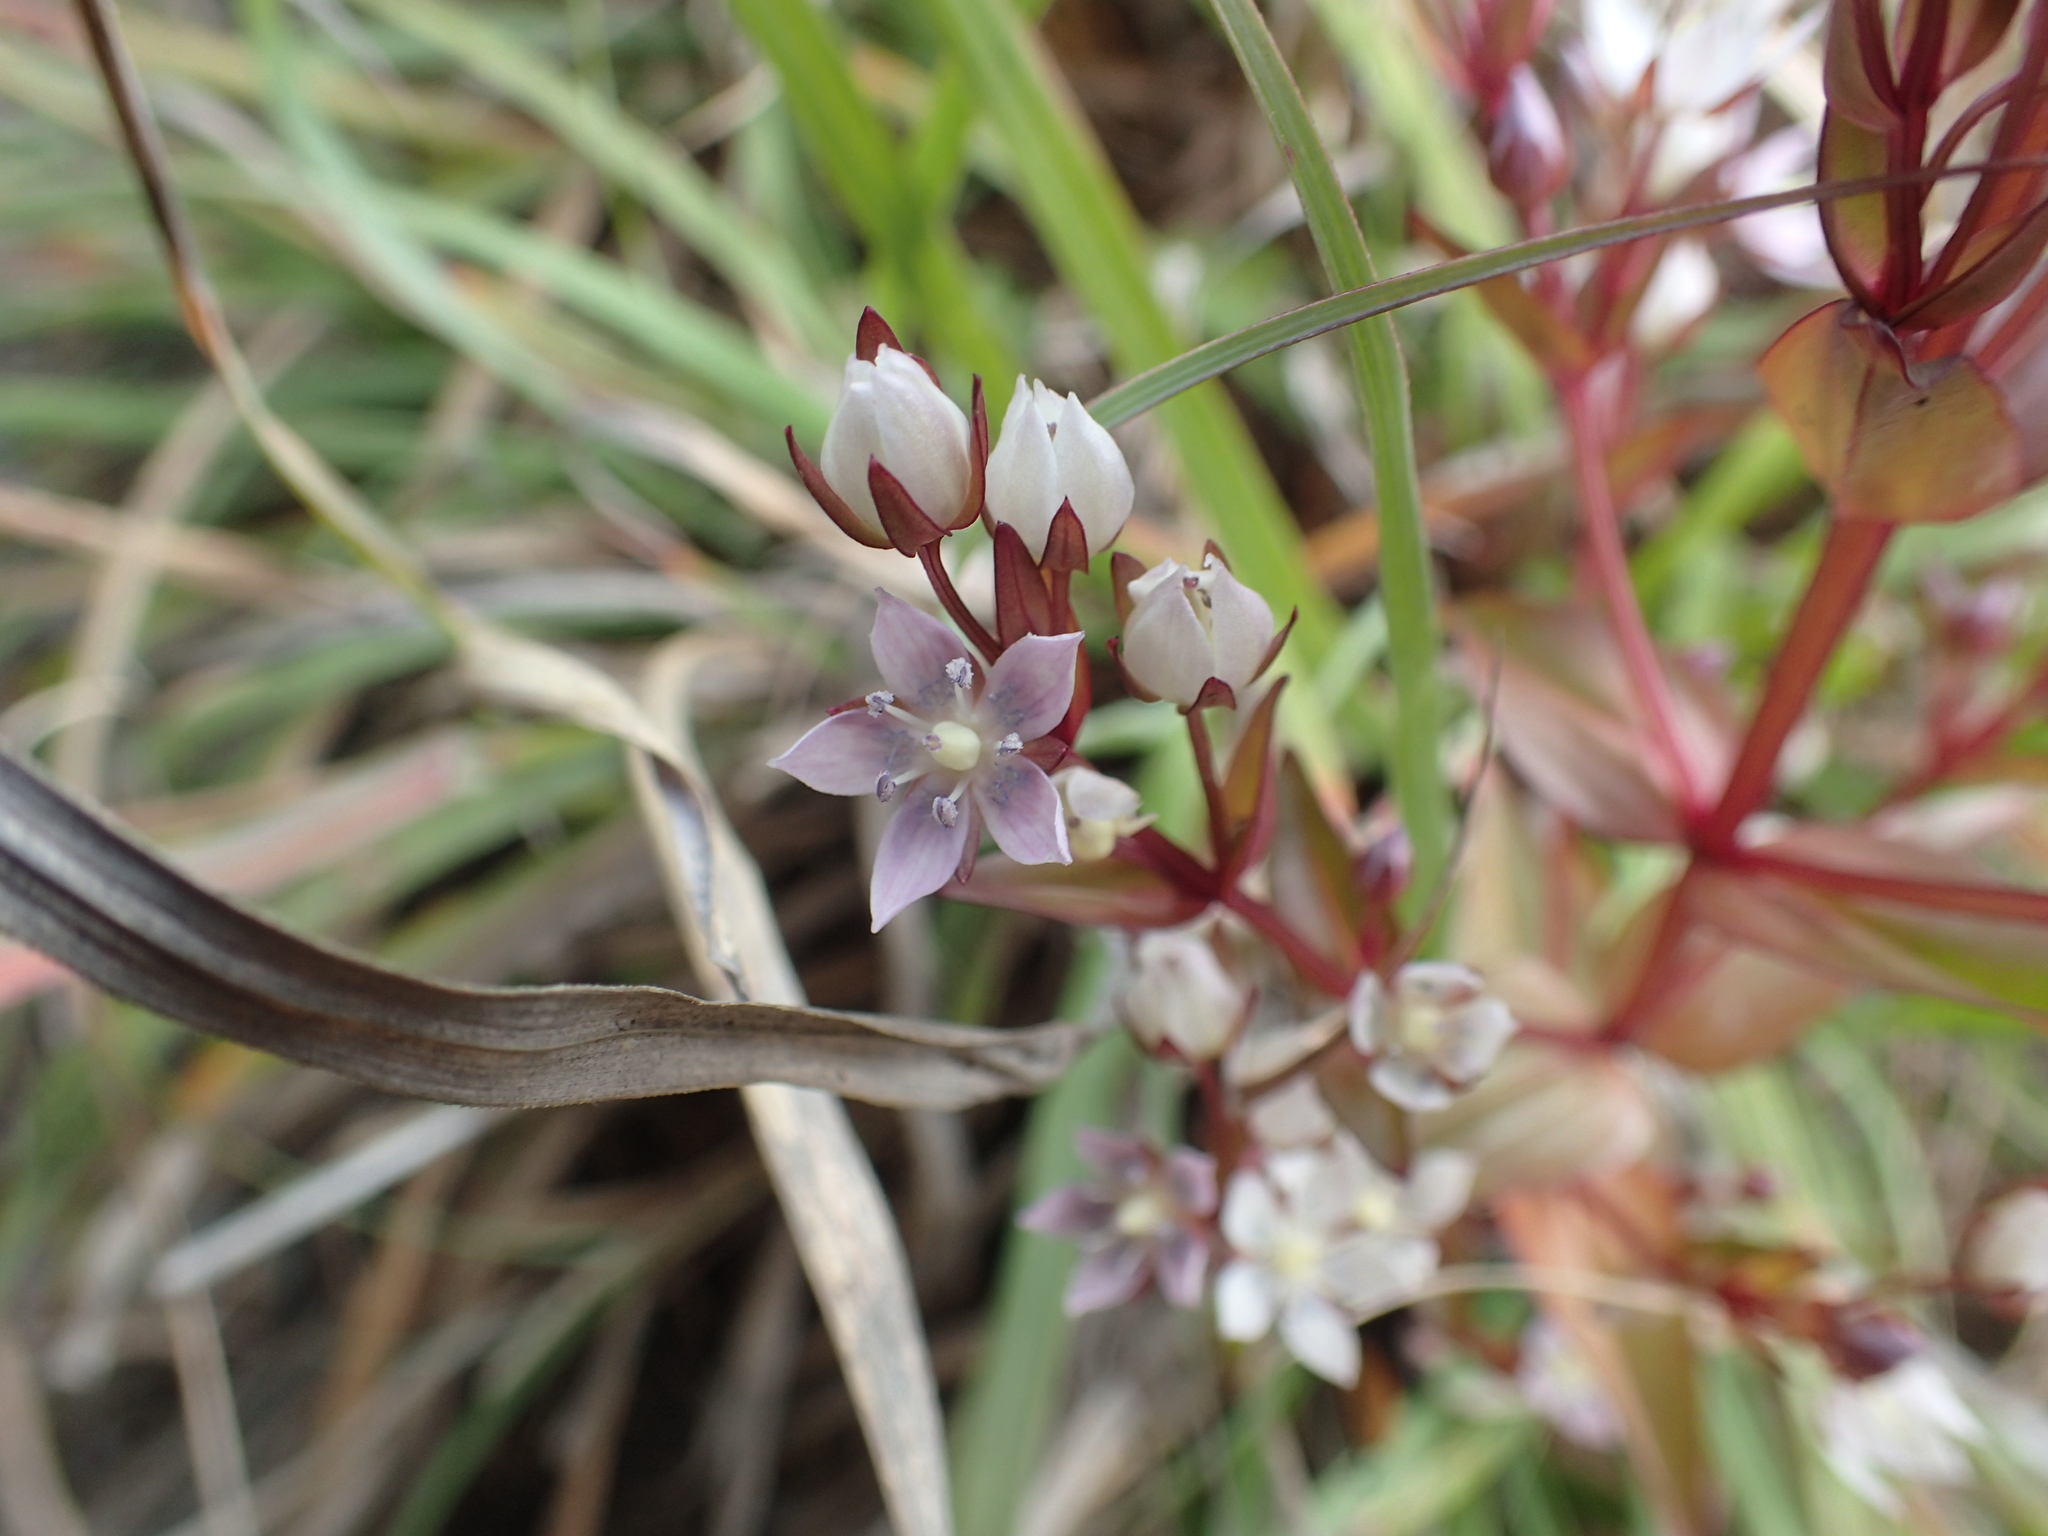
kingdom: Plantae
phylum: Tracheophyta
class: Magnoliopsida
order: Gentianales
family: Gentianaceae
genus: Swertia
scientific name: Swertia macrosperma
